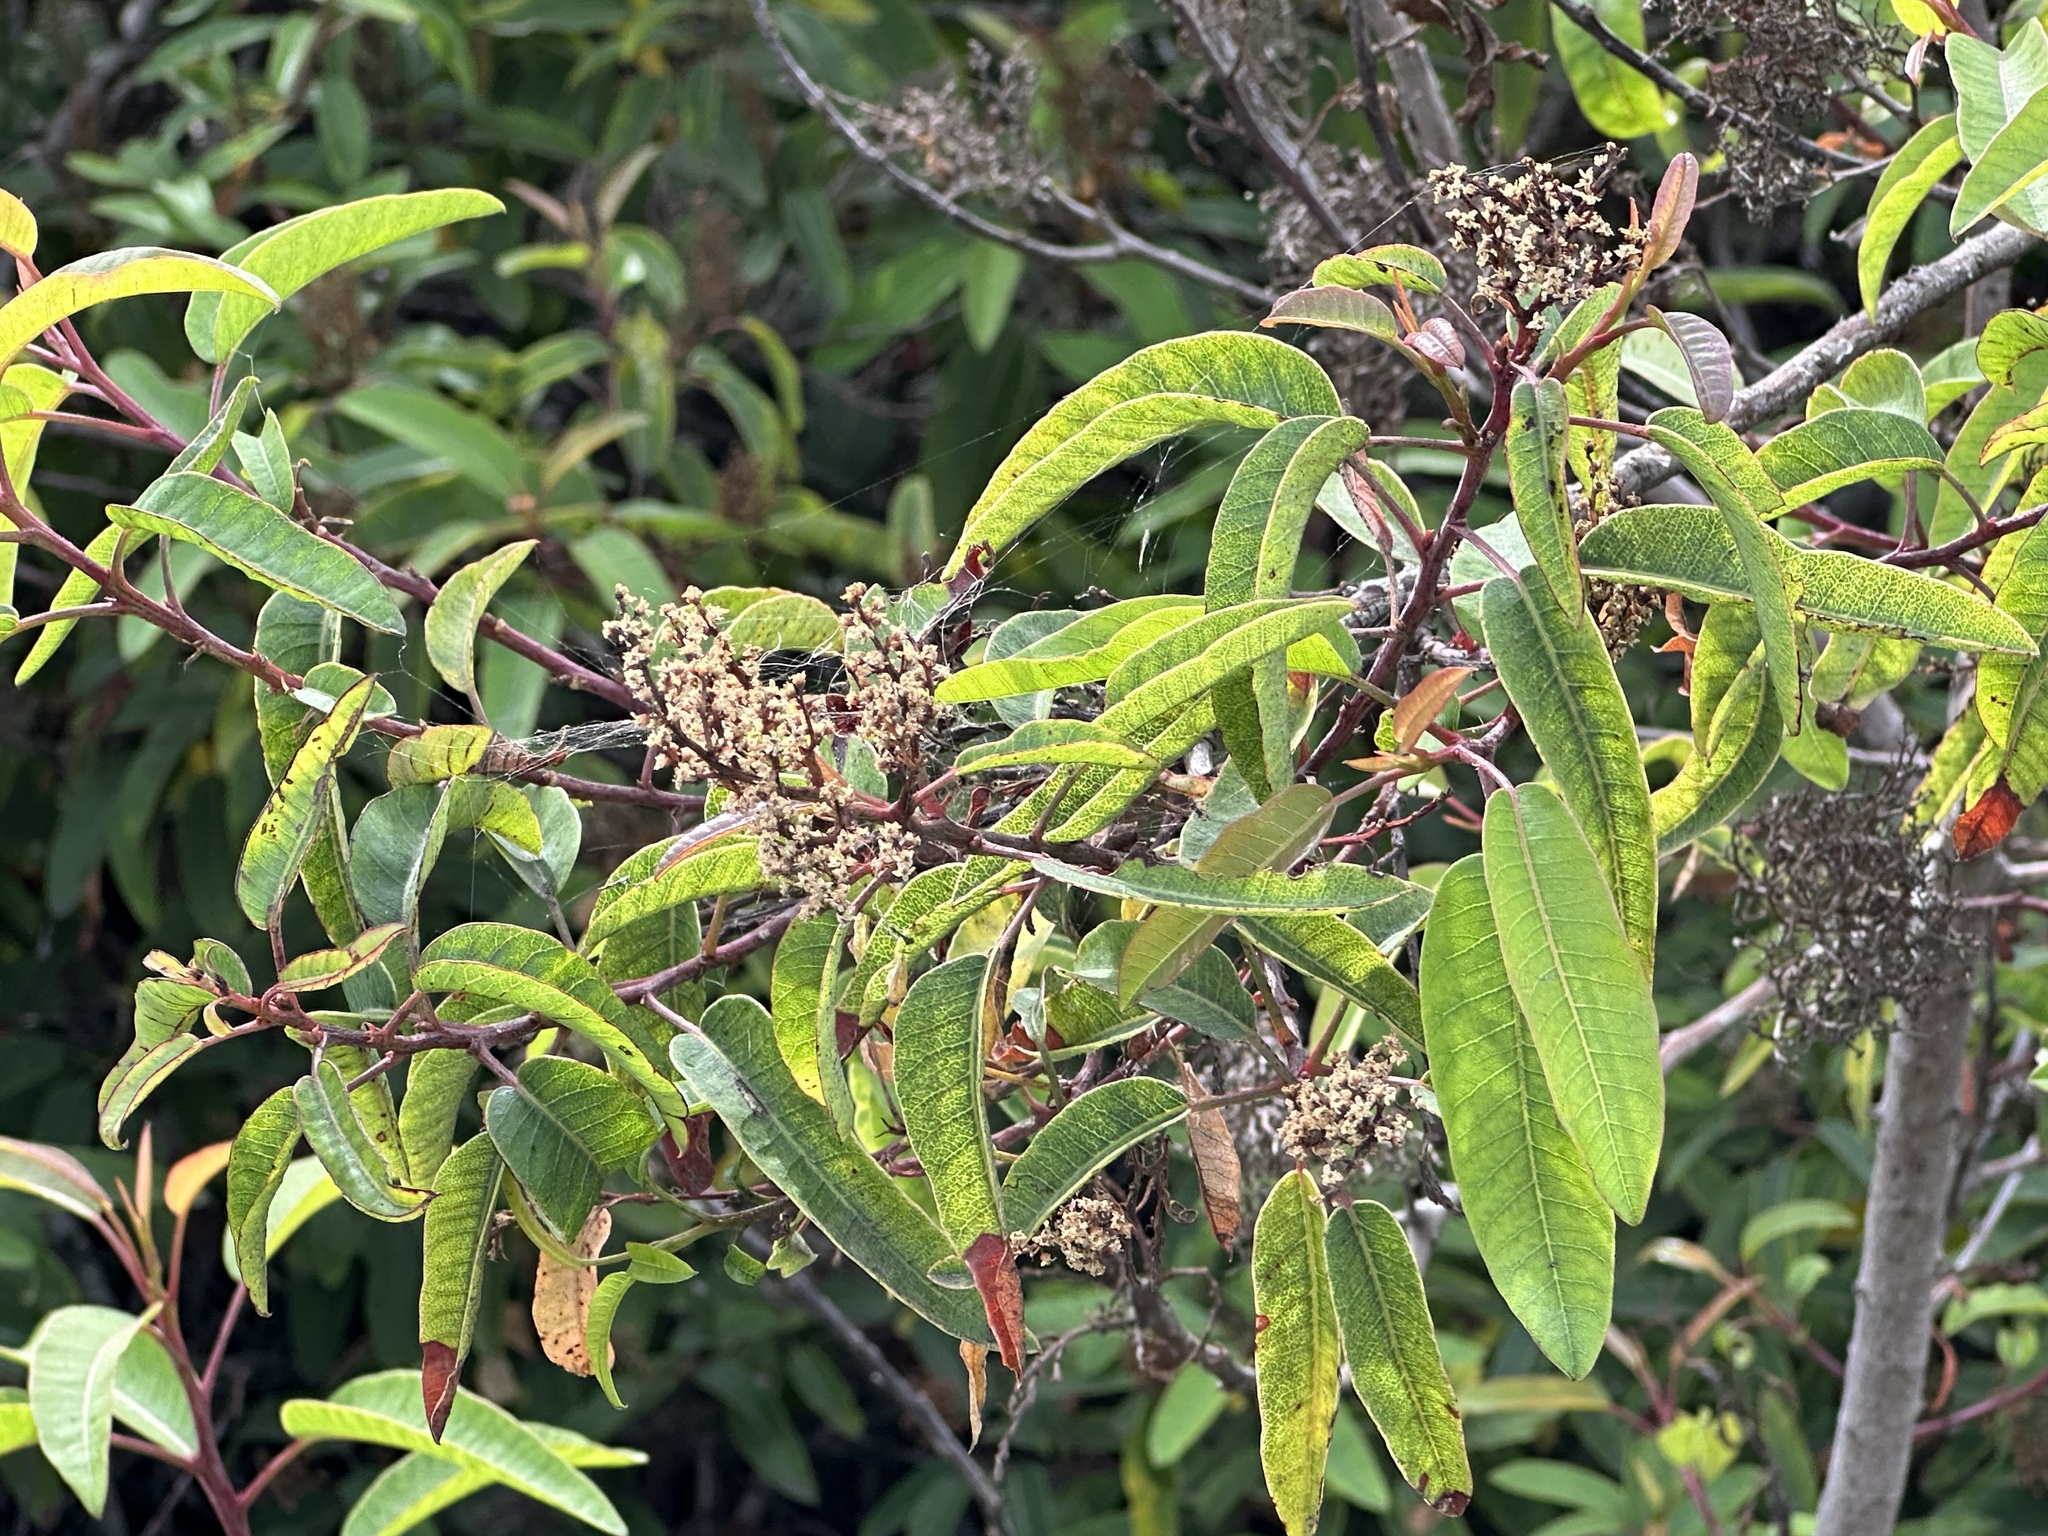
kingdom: Plantae
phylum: Tracheophyta
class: Magnoliopsida
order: Sapindales
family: Anacardiaceae
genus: Malosma
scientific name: Malosma laurina
